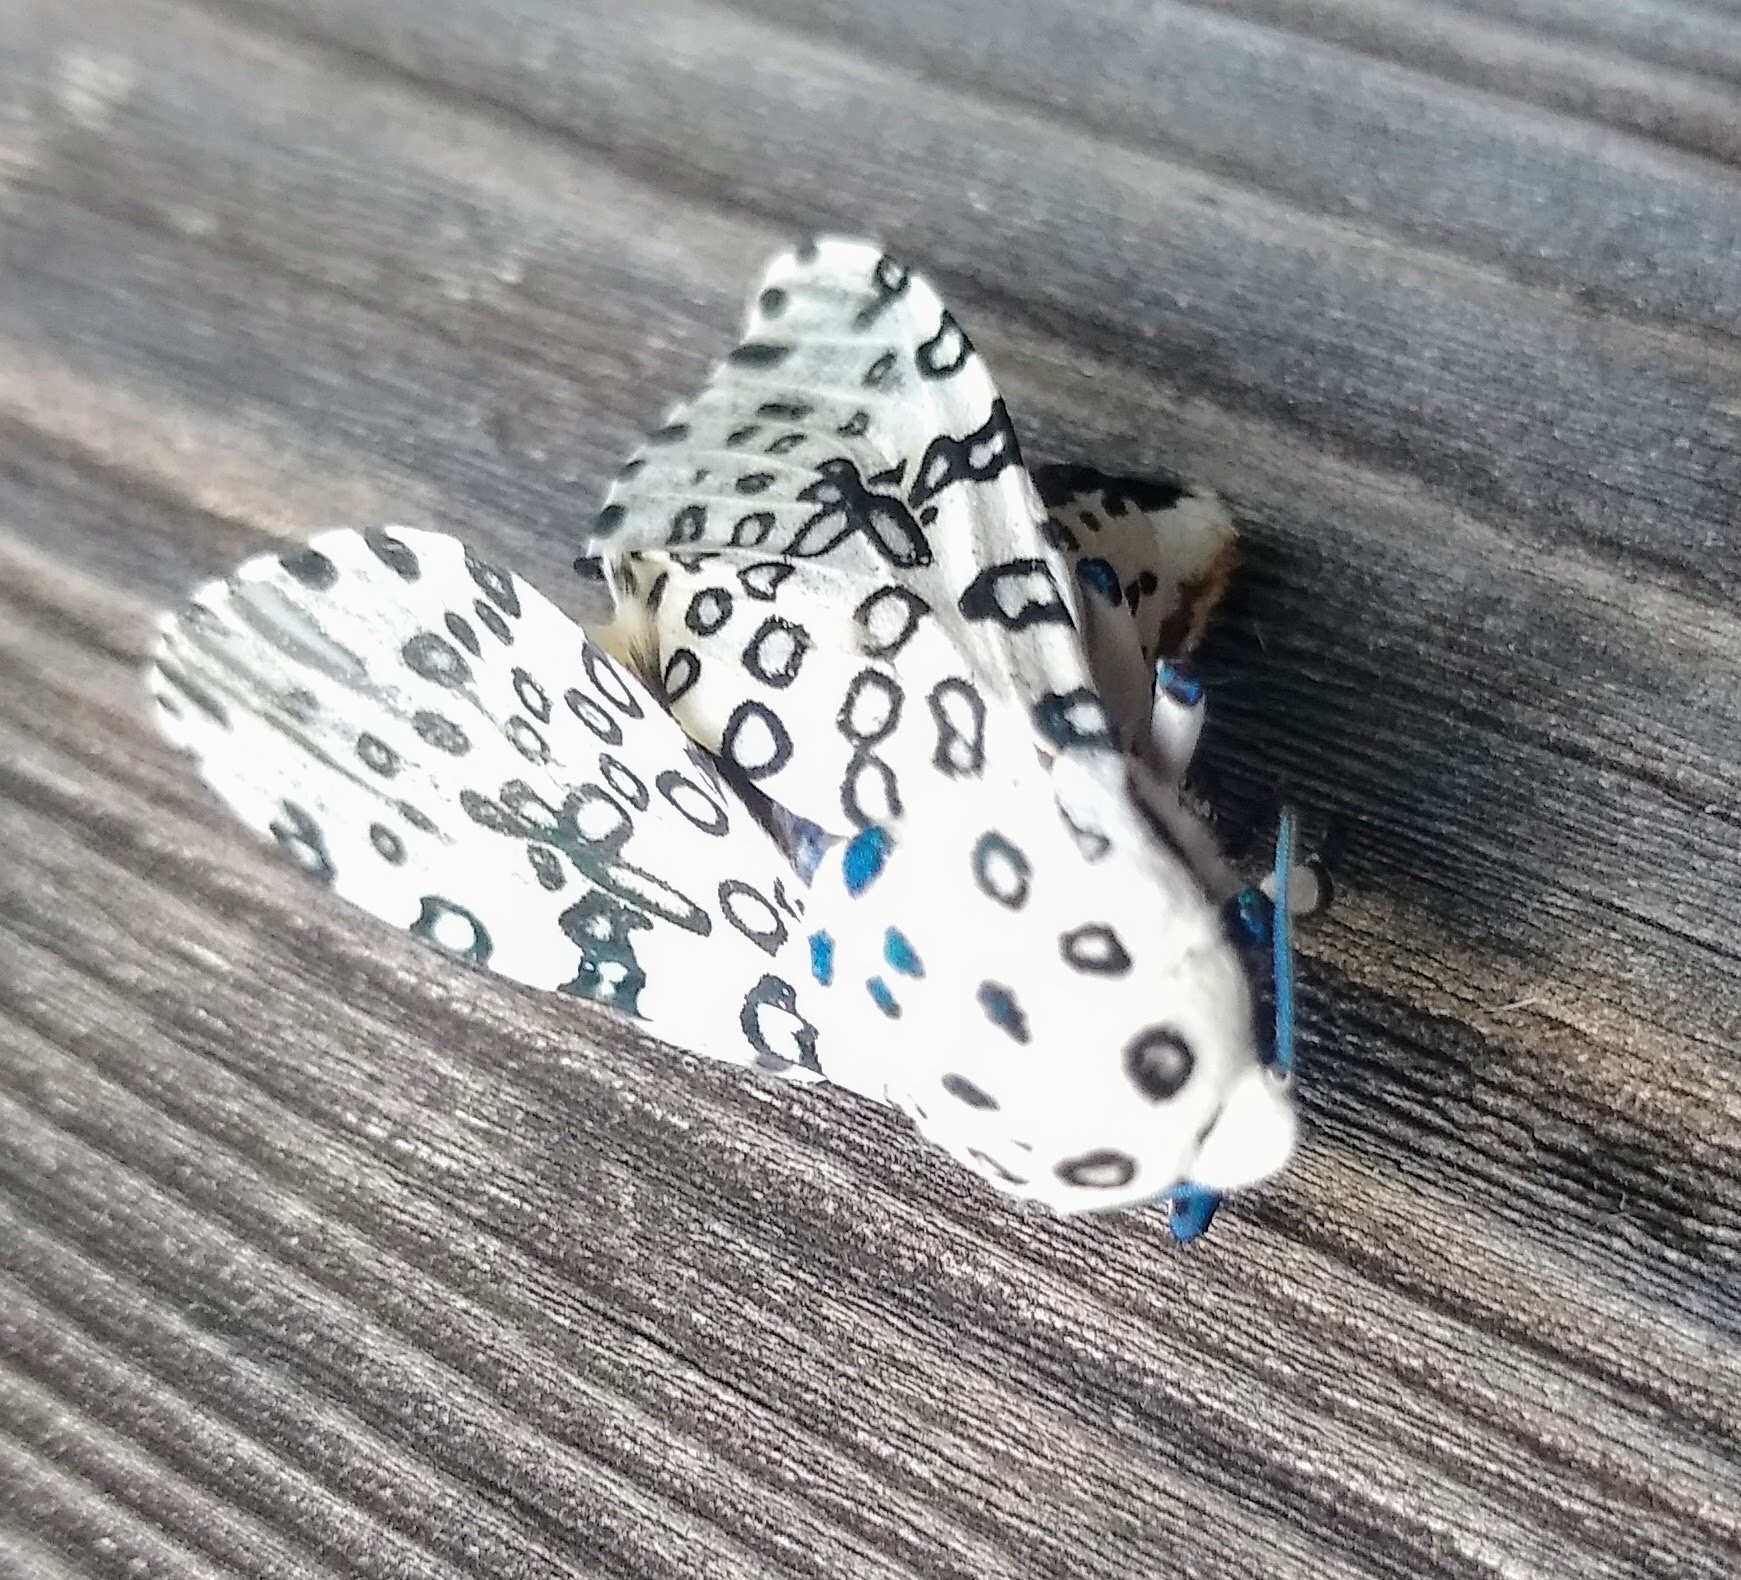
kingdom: Animalia
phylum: Arthropoda
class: Insecta
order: Lepidoptera
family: Erebidae
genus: Hypercompe
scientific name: Hypercompe scribonia
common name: Giant leopard moth
